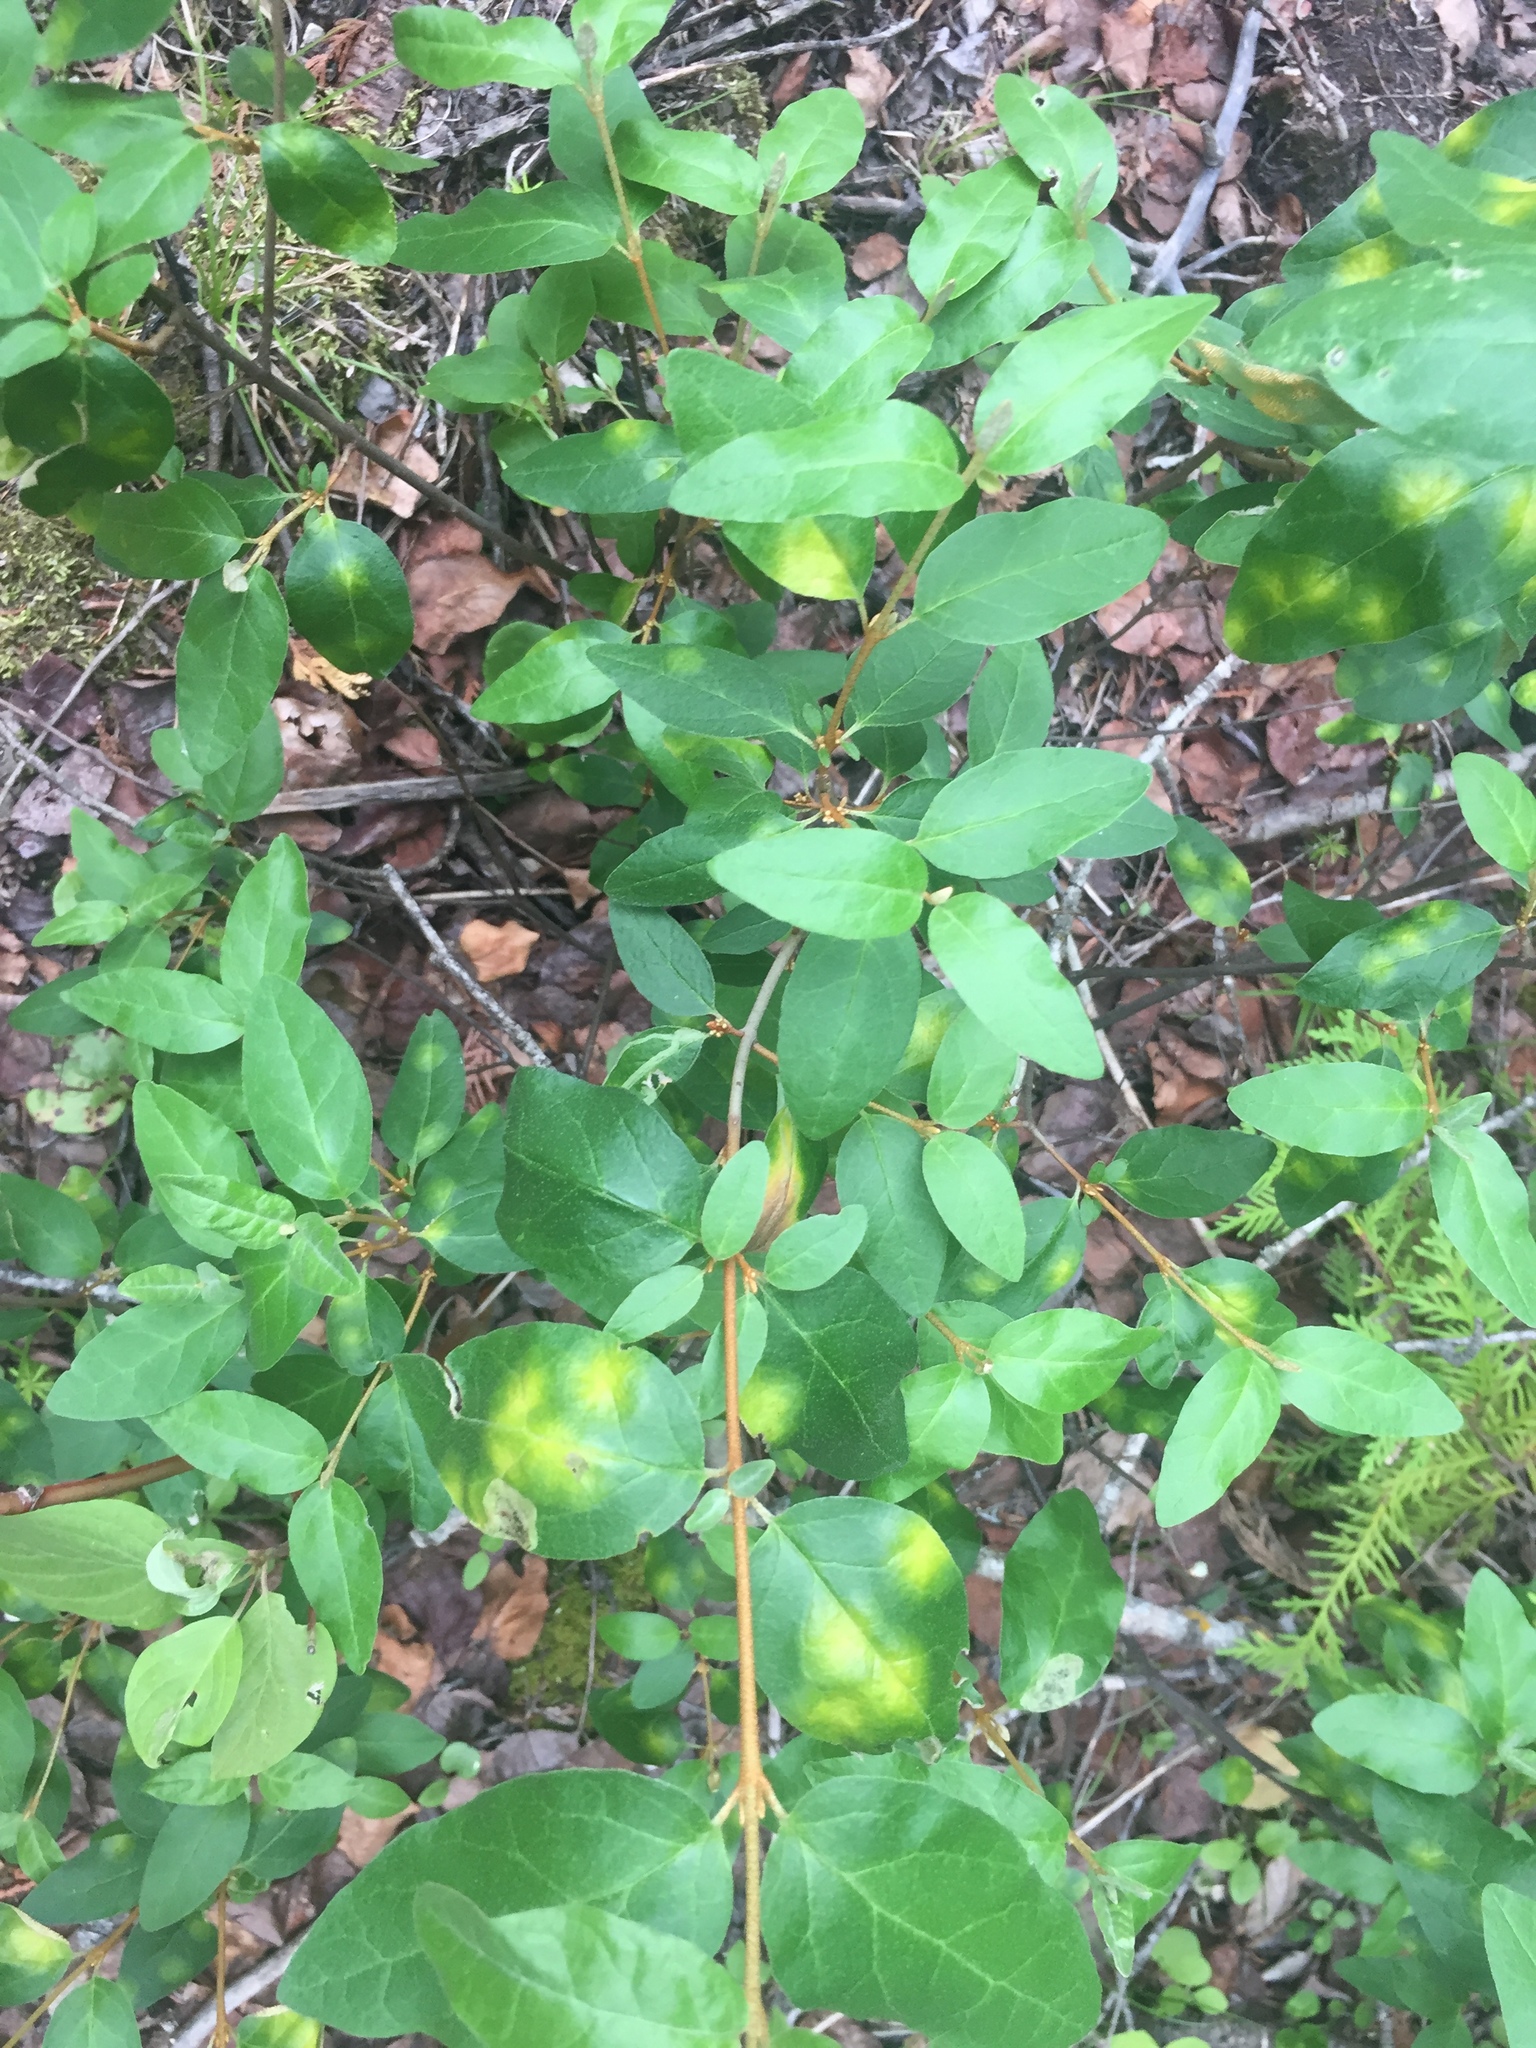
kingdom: Plantae
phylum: Tracheophyta
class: Magnoliopsida
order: Rosales
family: Elaeagnaceae
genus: Shepherdia
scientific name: Shepherdia canadensis
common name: Soapberry
